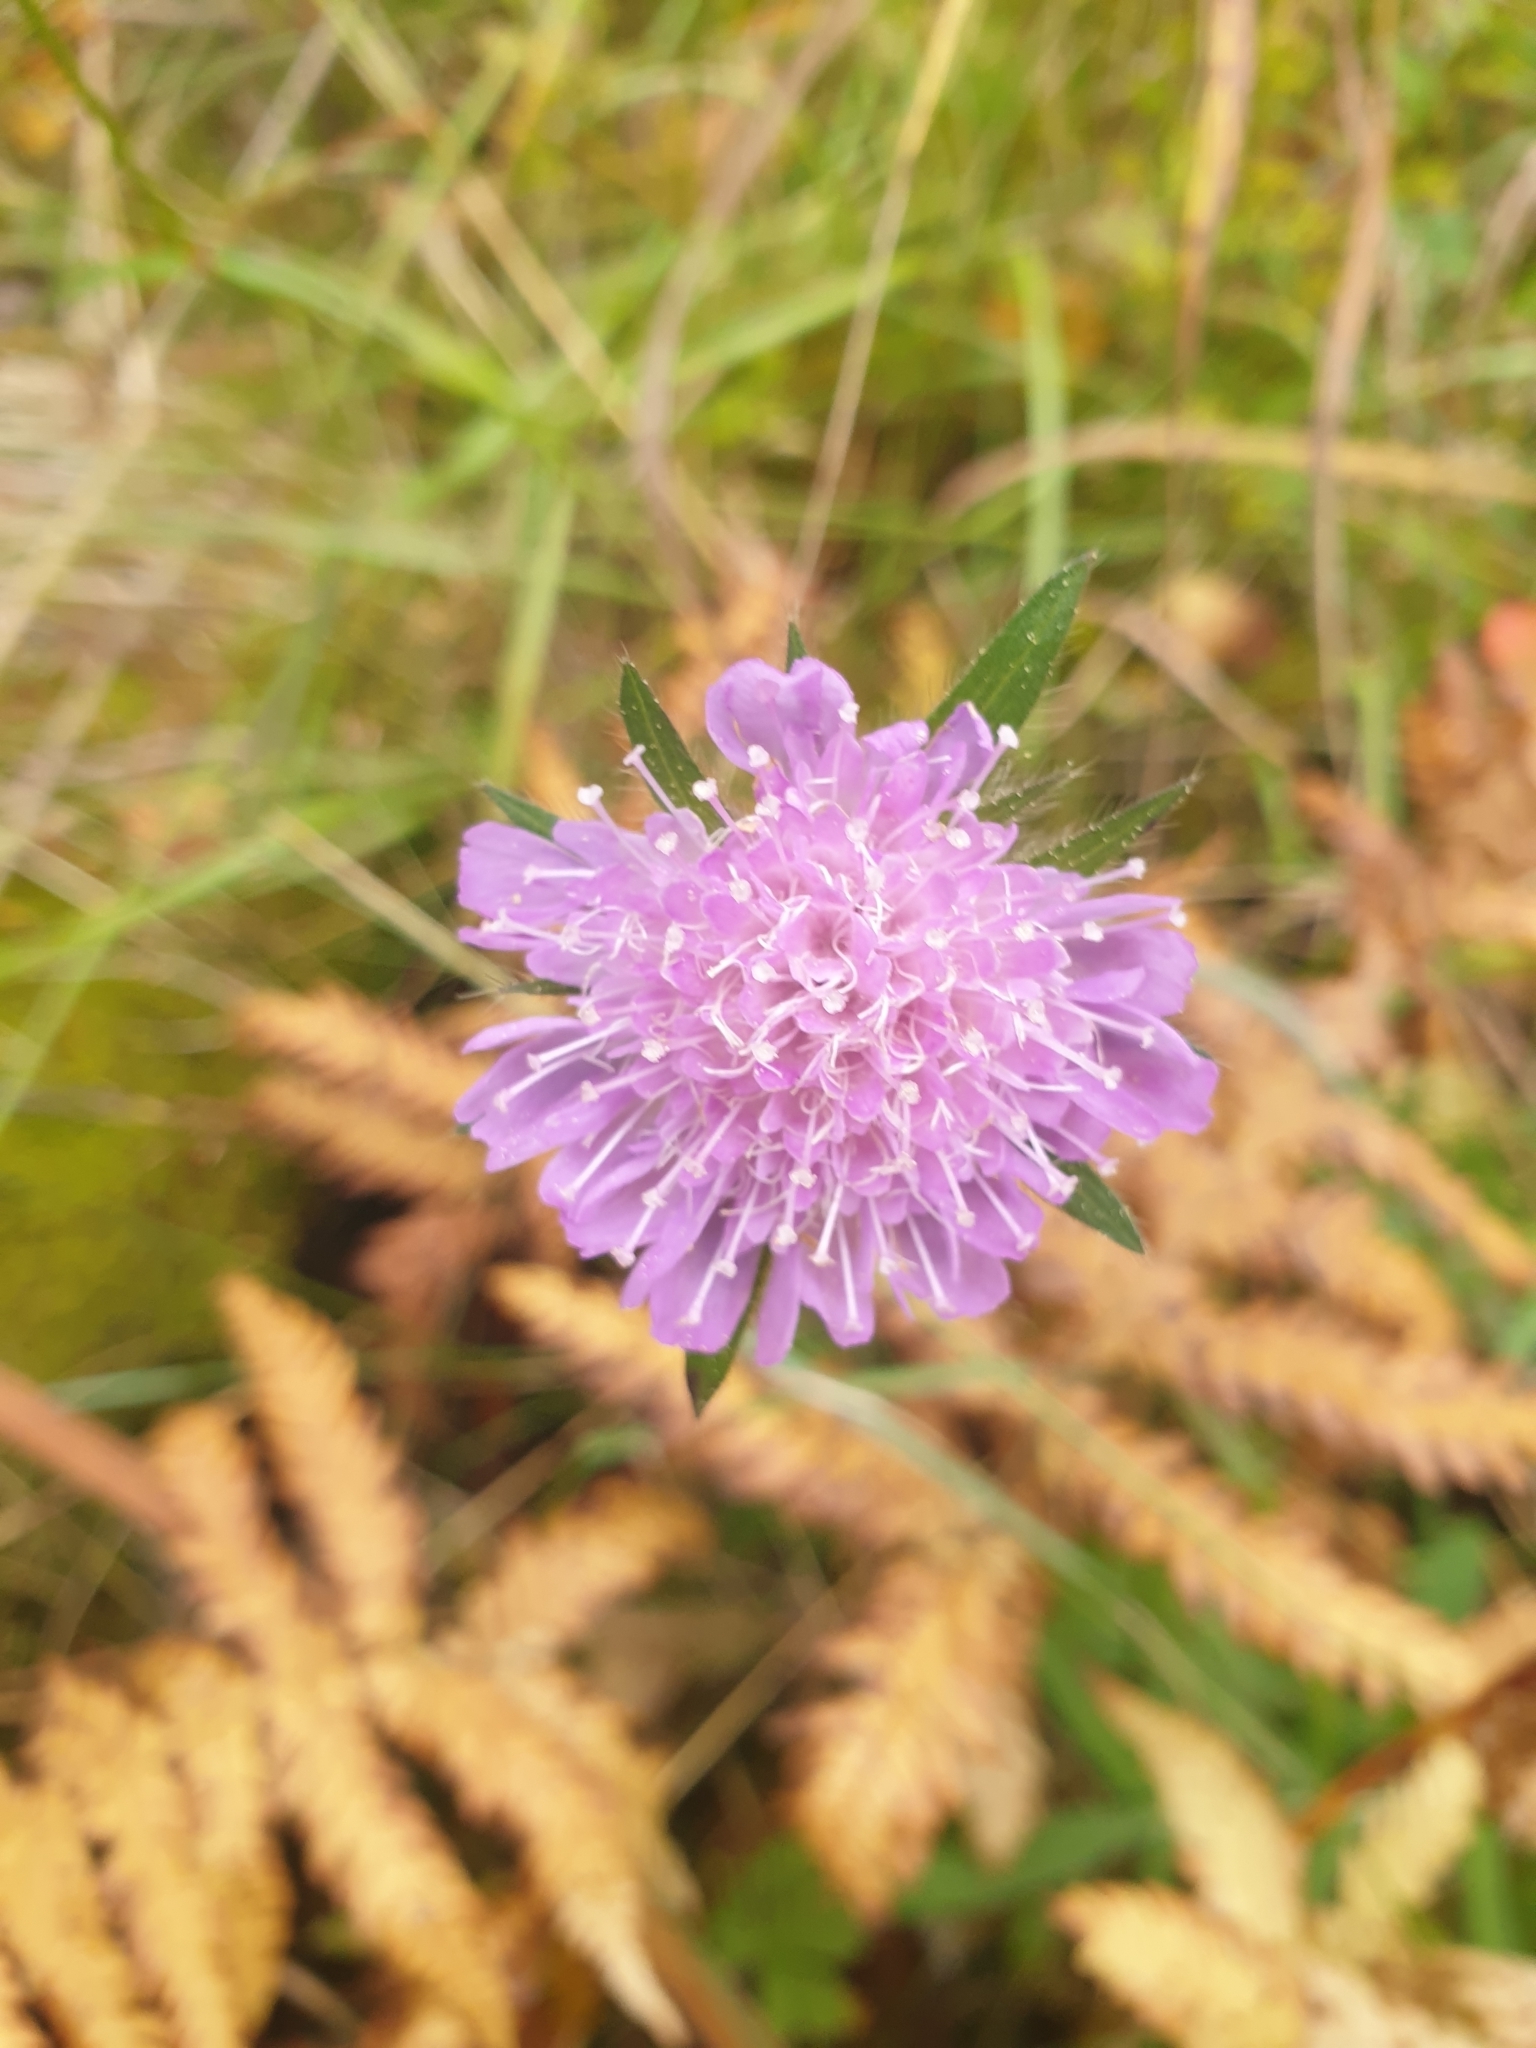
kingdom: Plantae
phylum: Tracheophyta
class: Magnoliopsida
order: Dipsacales
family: Caprifoliaceae
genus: Knautia
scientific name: Knautia arvensis
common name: Field scabiosa
